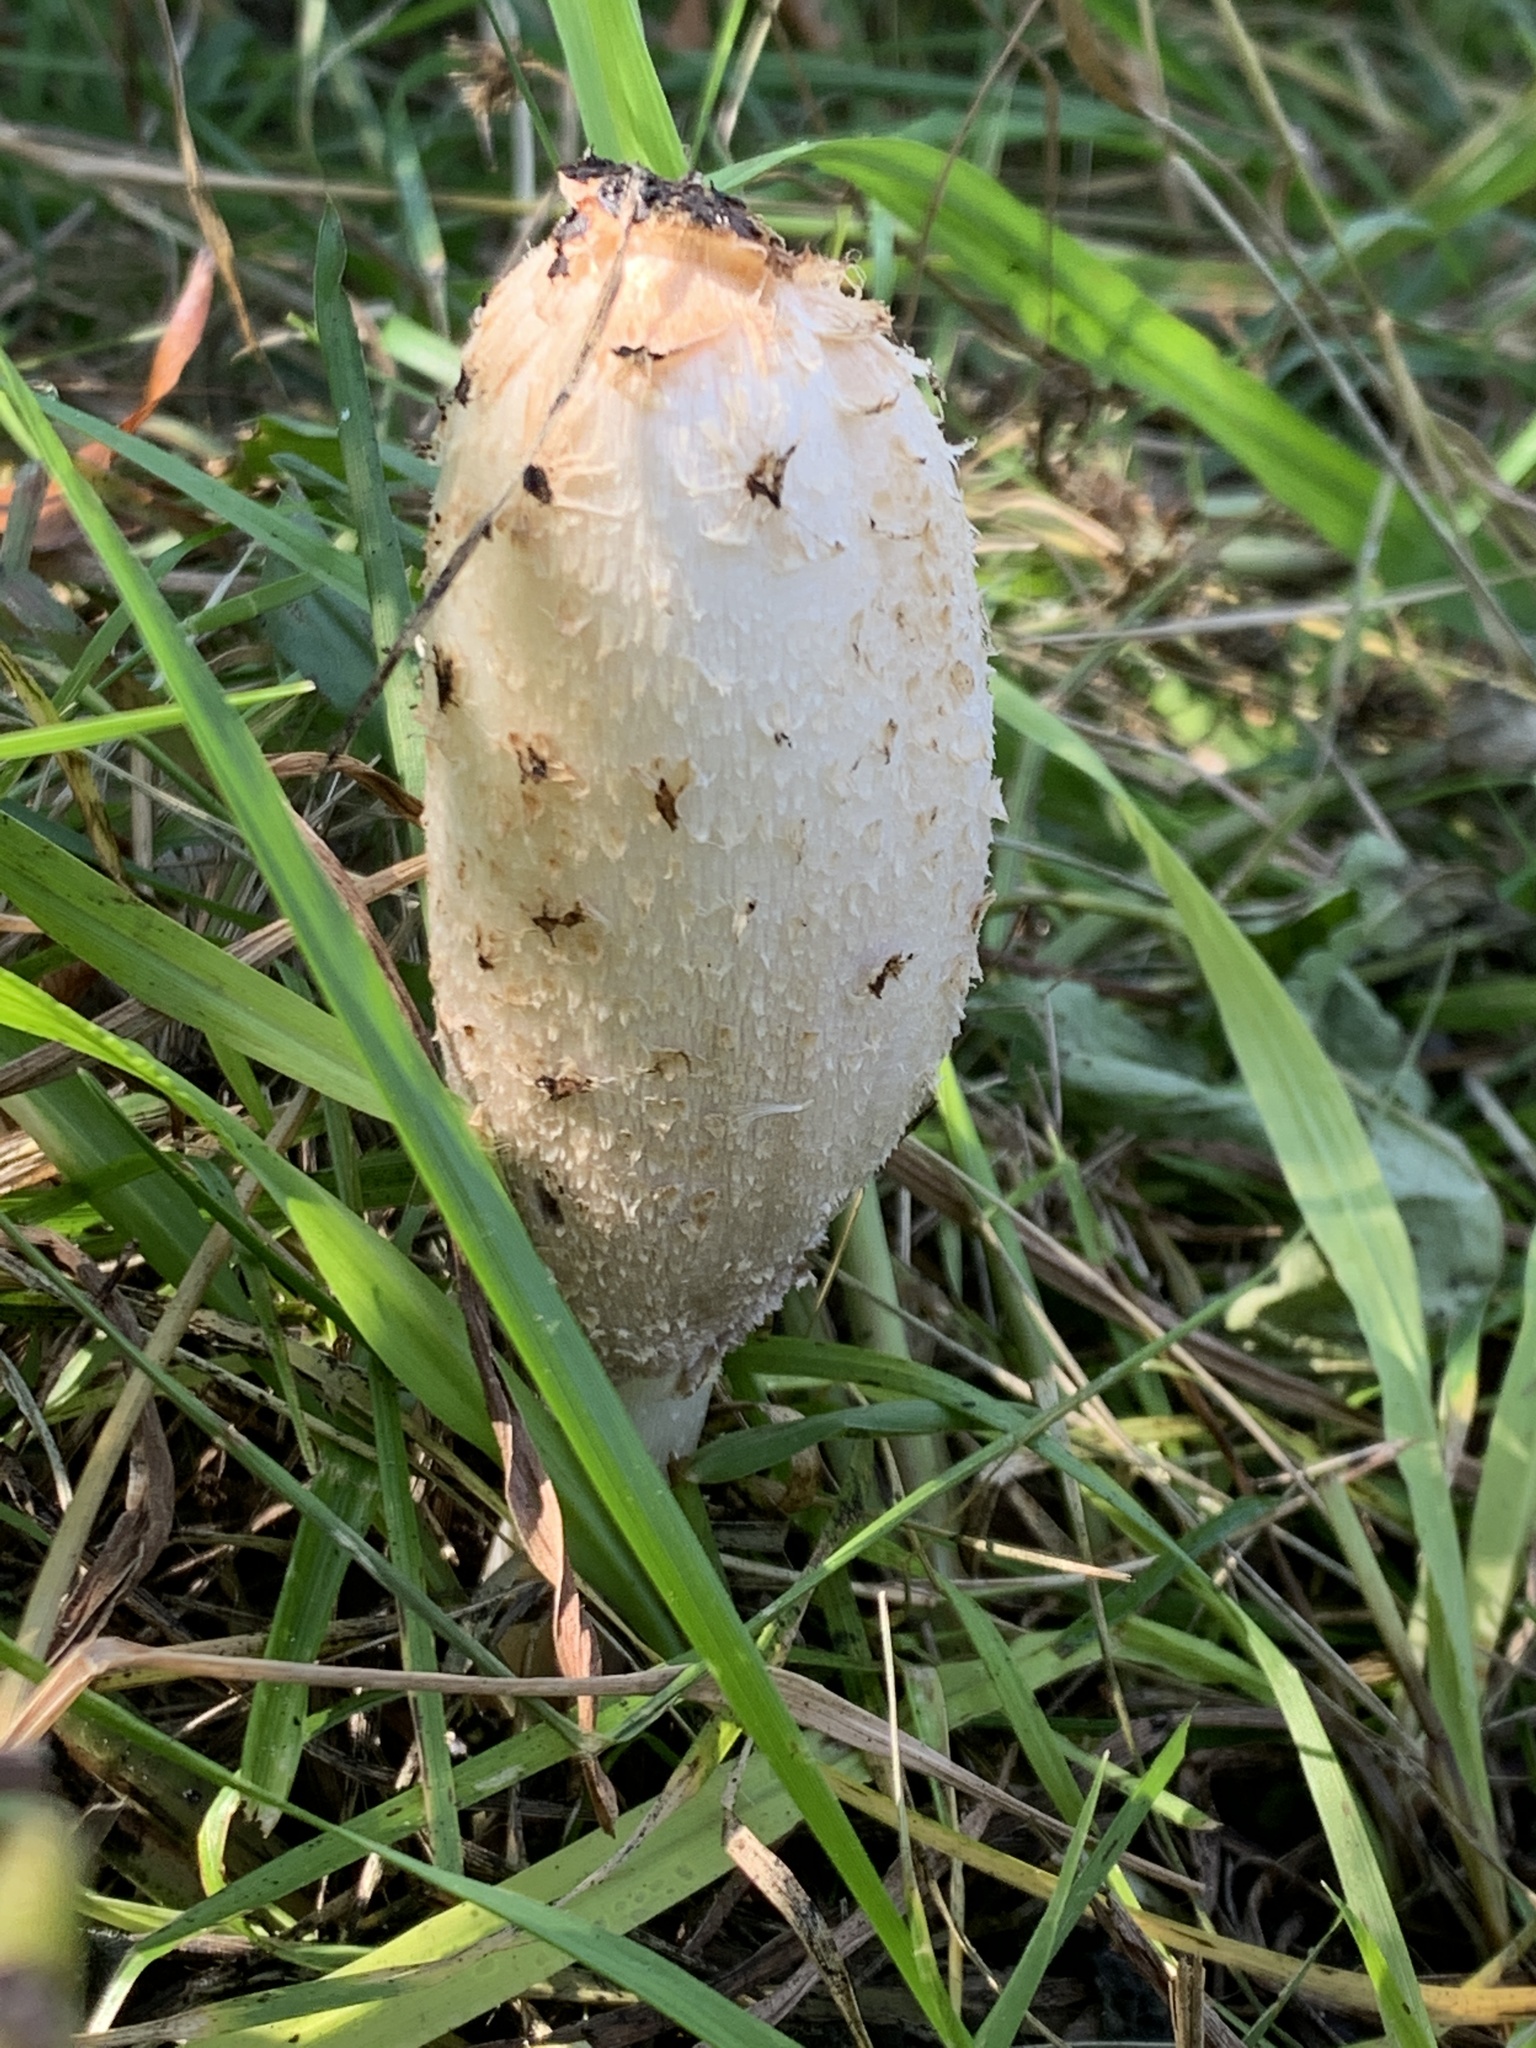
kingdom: Fungi
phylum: Basidiomycota
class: Agaricomycetes
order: Agaricales
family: Agaricaceae
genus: Coprinus
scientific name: Coprinus comatus
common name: Lawyer's wig
